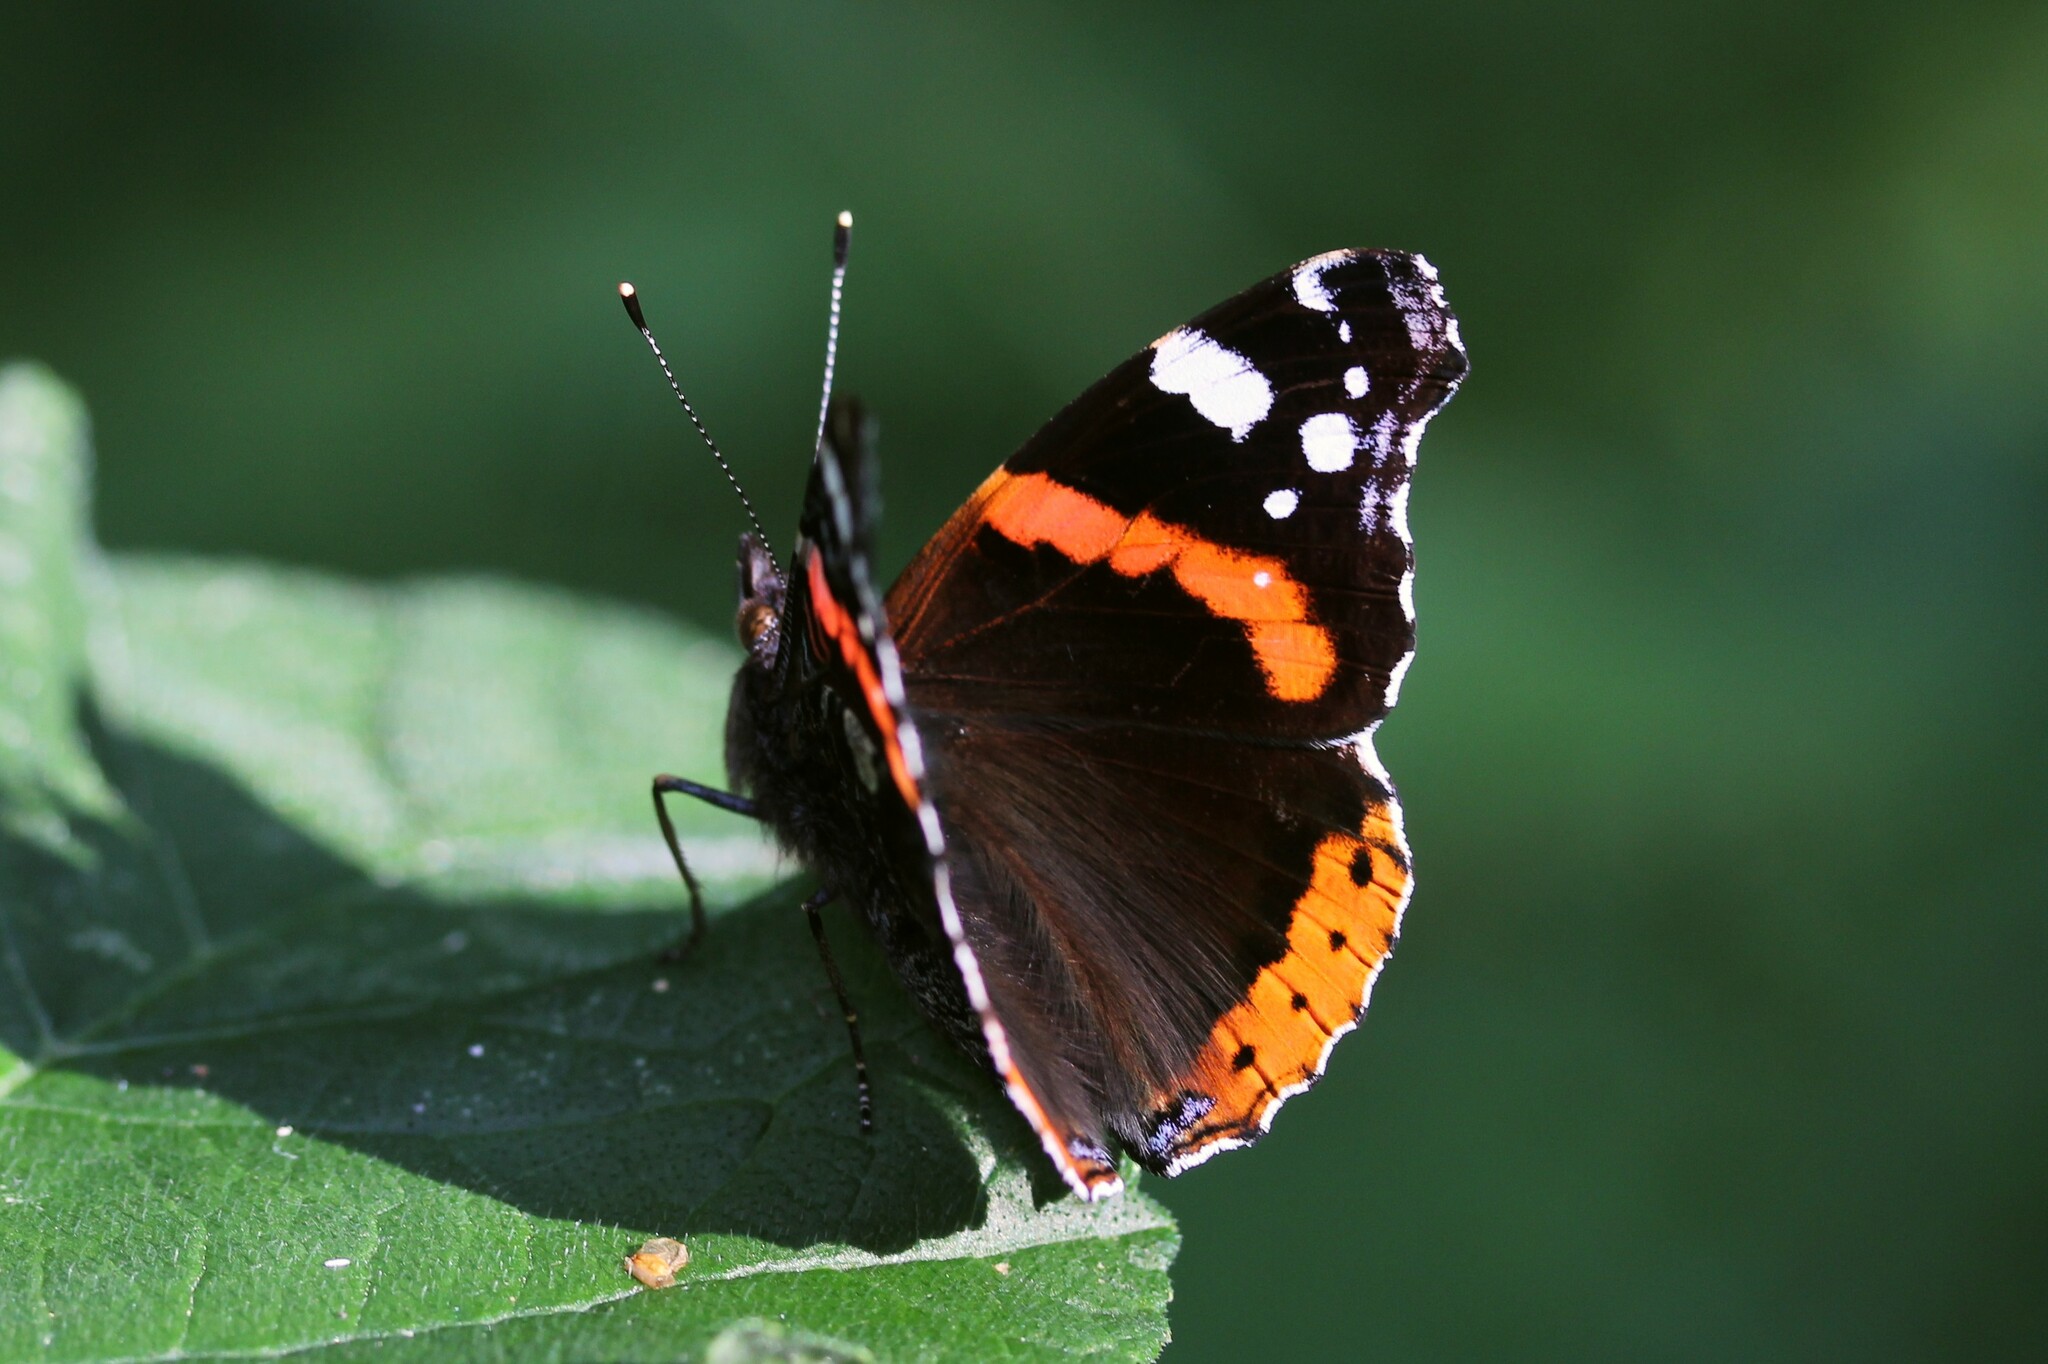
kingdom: Animalia
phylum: Arthropoda
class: Insecta
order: Lepidoptera
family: Nymphalidae
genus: Vanessa
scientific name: Vanessa atalanta
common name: Red admiral
